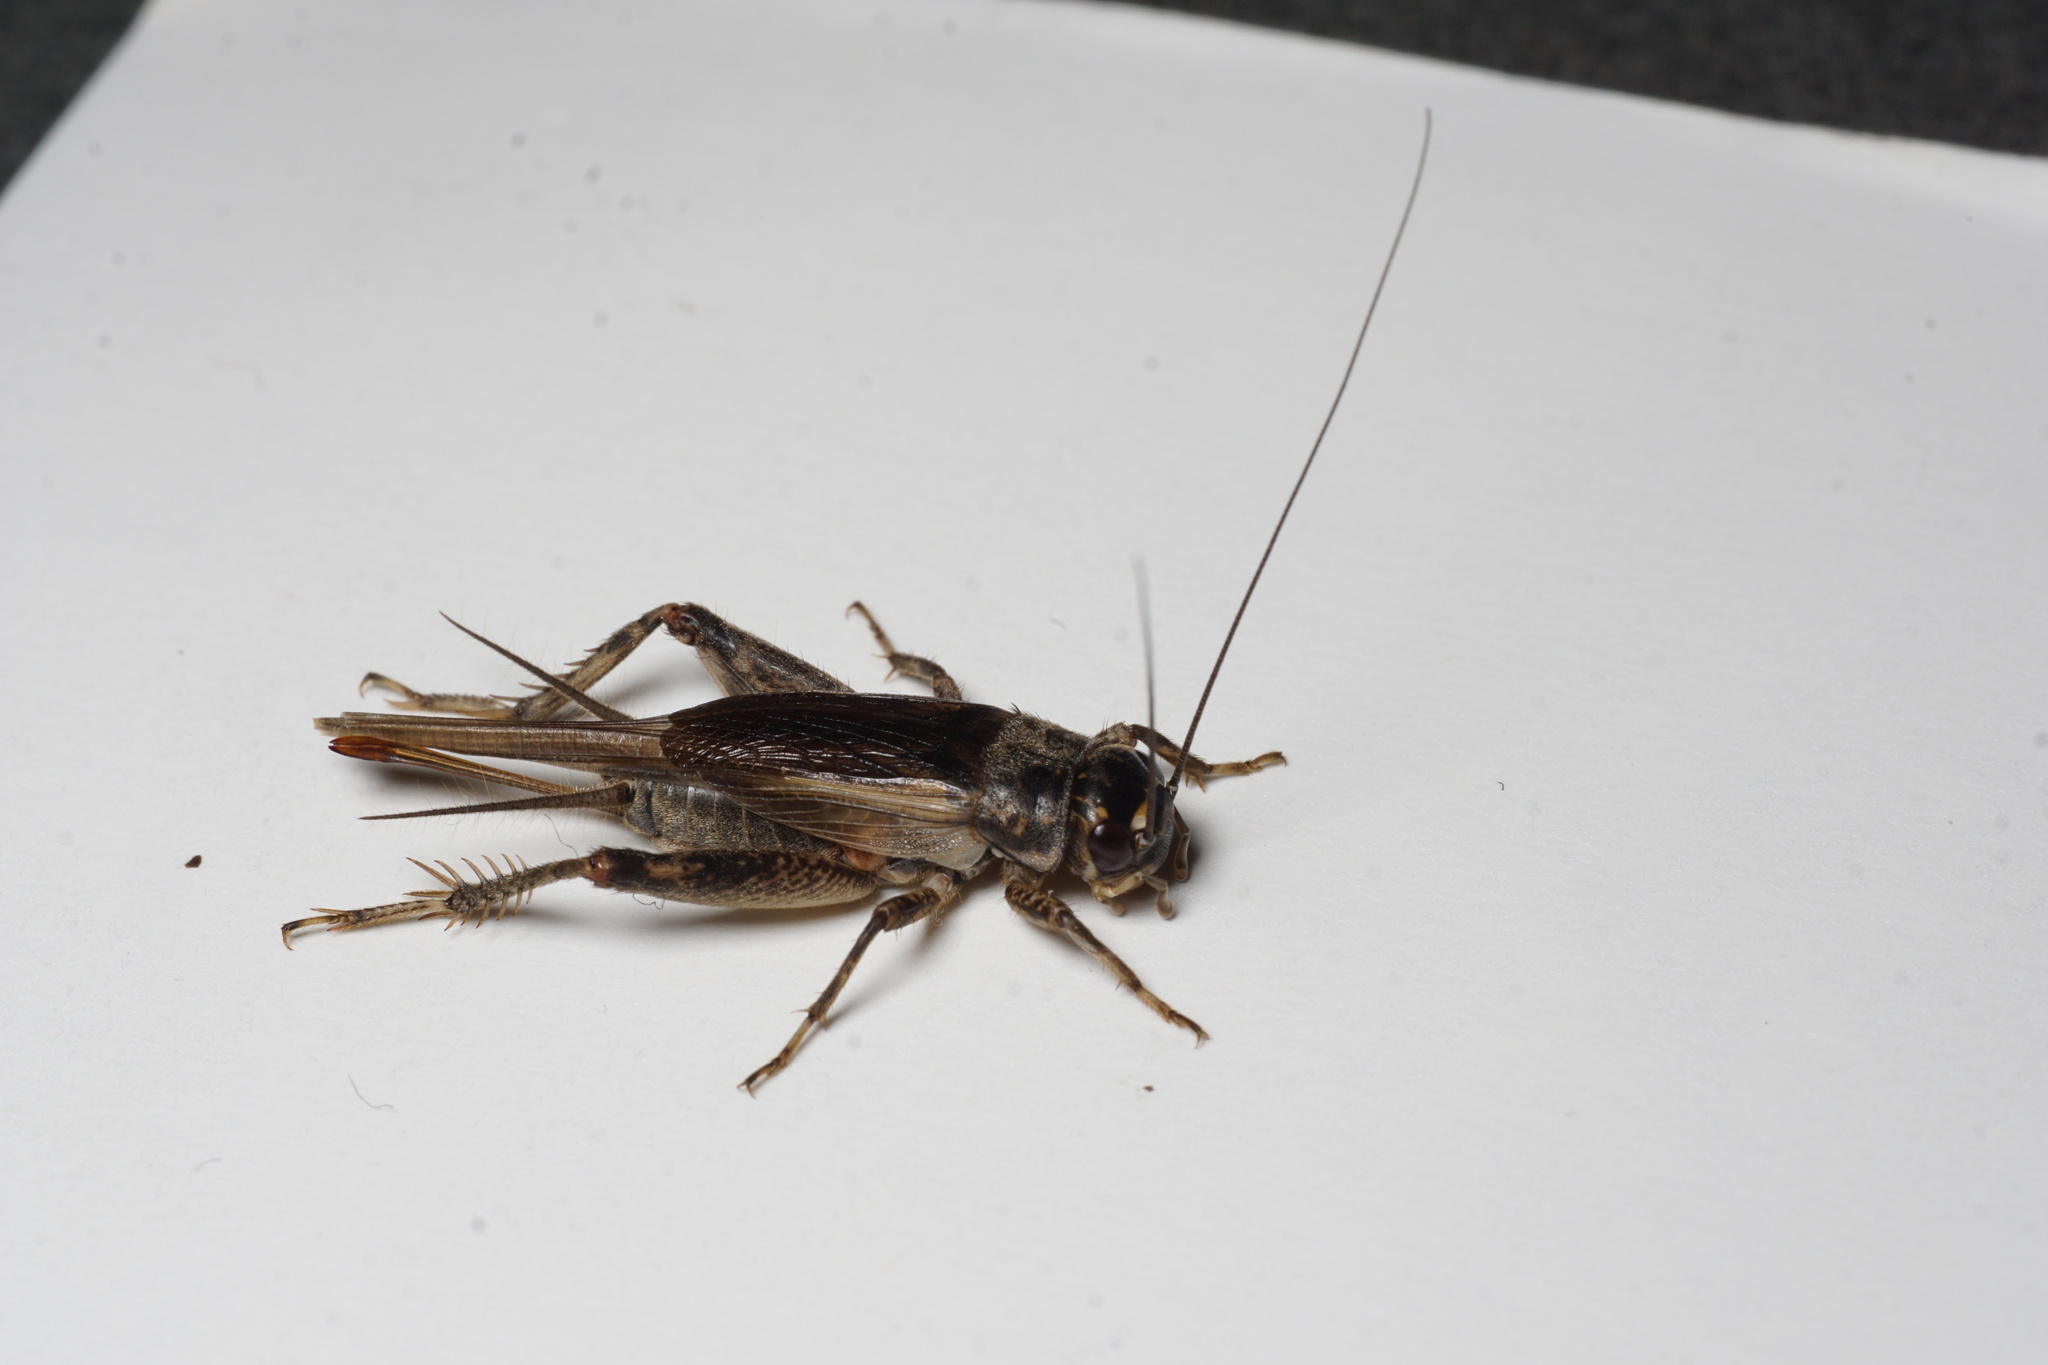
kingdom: Animalia
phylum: Arthropoda
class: Insecta
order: Orthoptera
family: Gryllidae
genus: Eumodicogryllus
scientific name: Eumodicogryllus bordigalensis
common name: Bordeaux cricket
